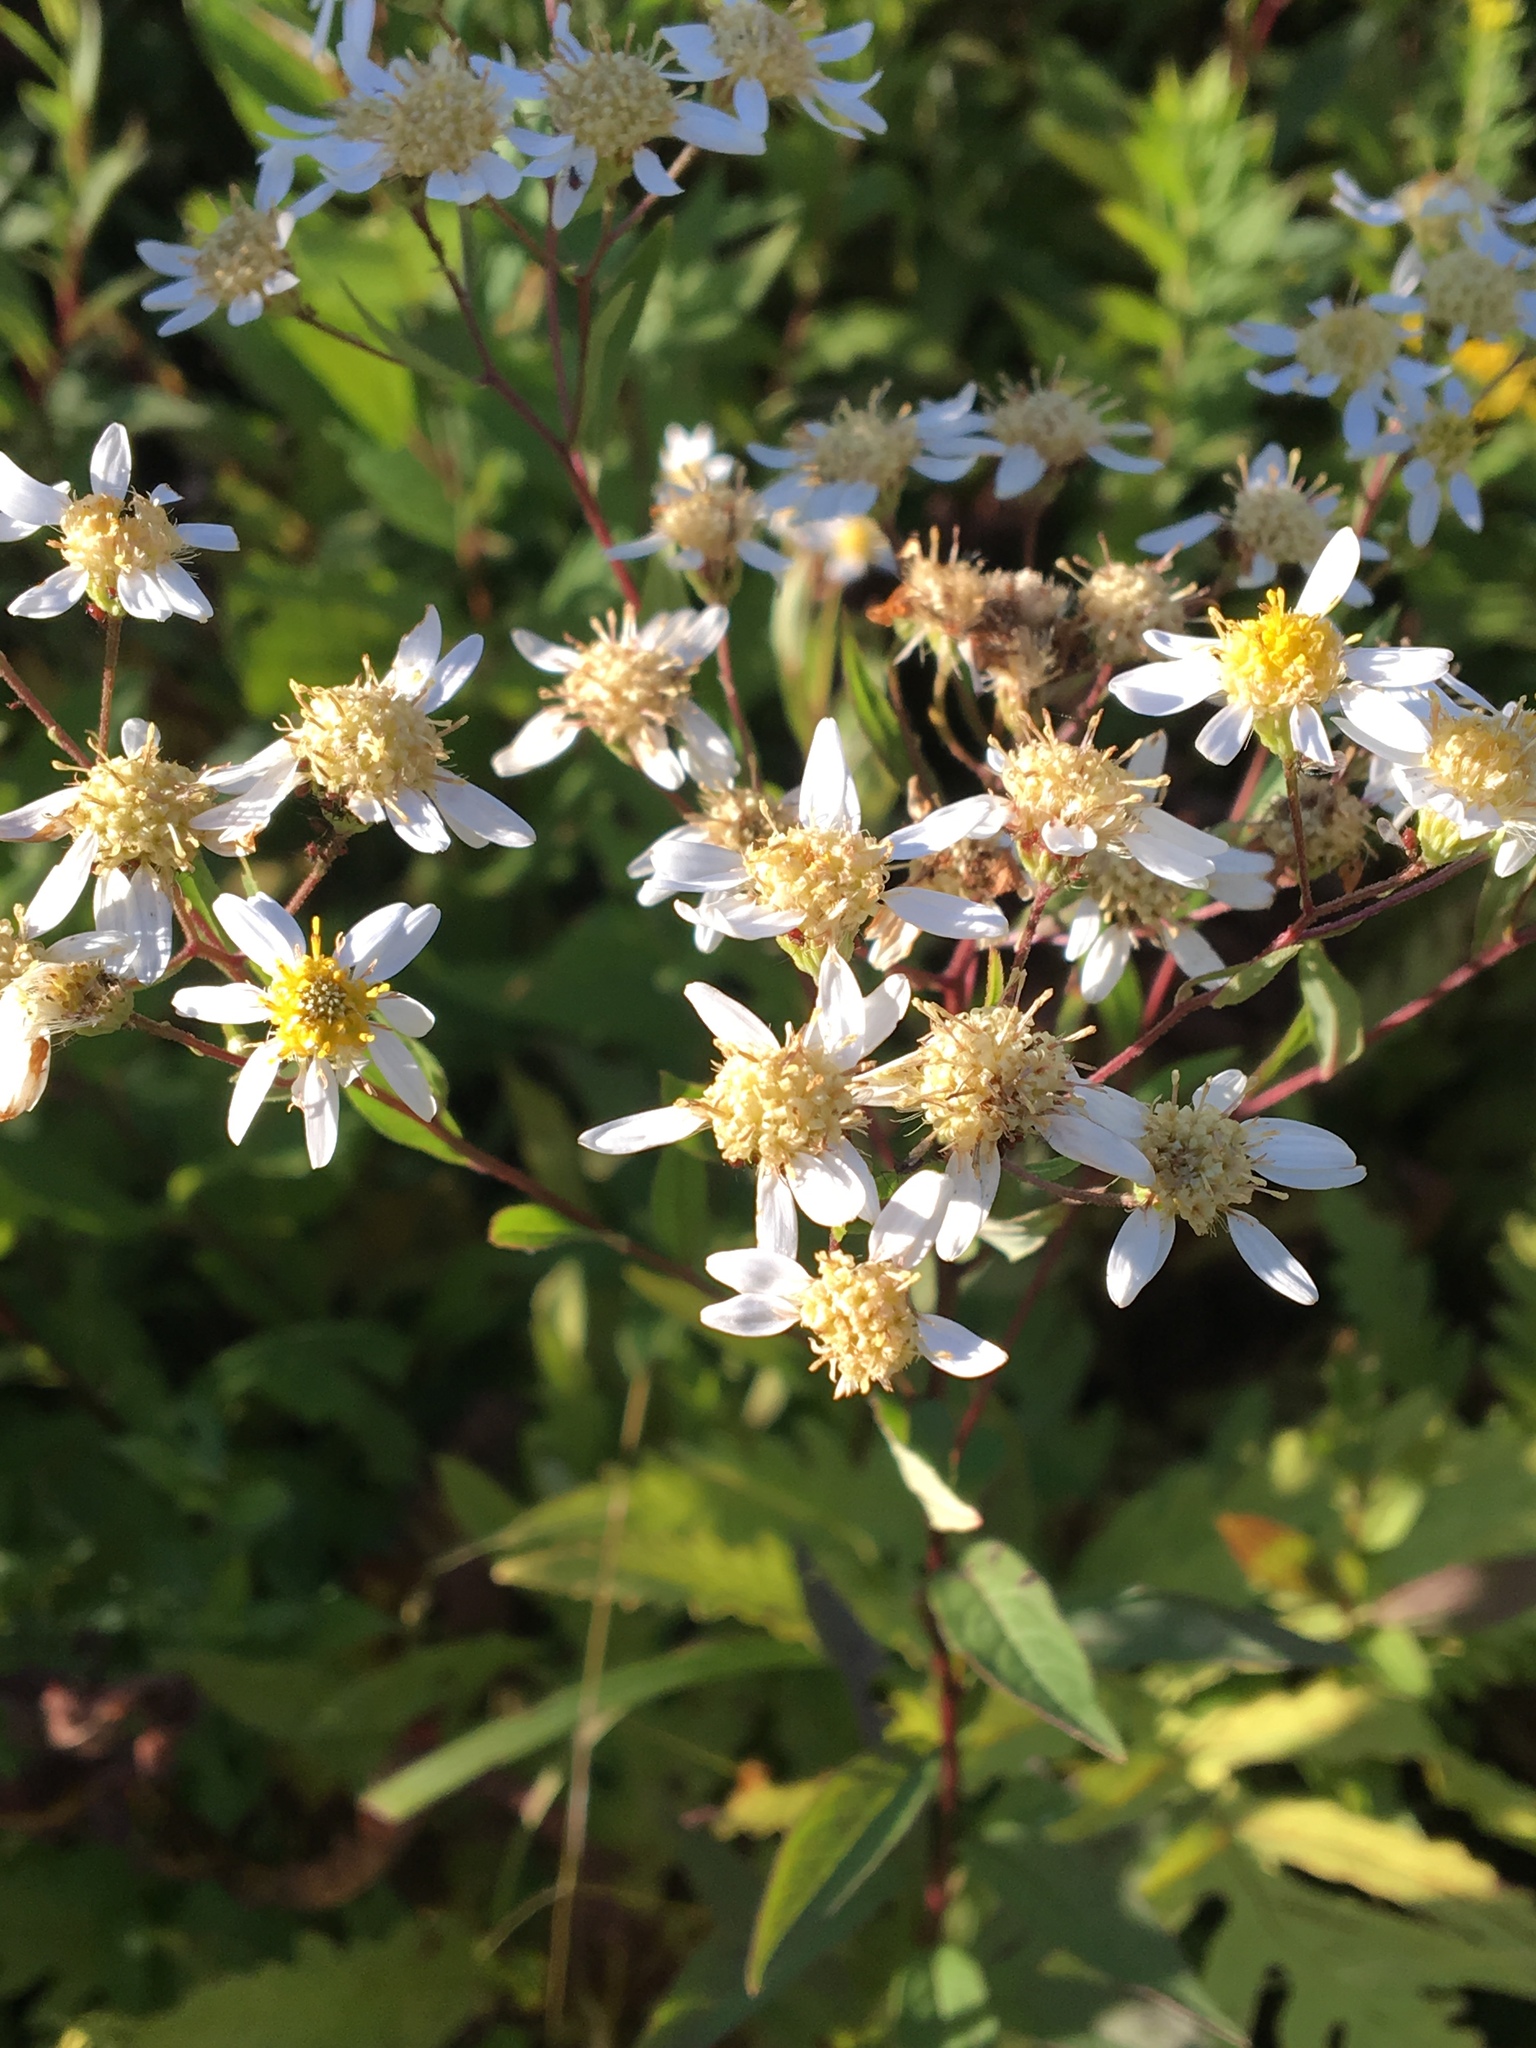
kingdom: Plantae
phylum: Tracheophyta
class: Magnoliopsida
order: Asterales
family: Asteraceae
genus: Doellingeria
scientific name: Doellingeria umbellata
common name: Flat-top white aster
